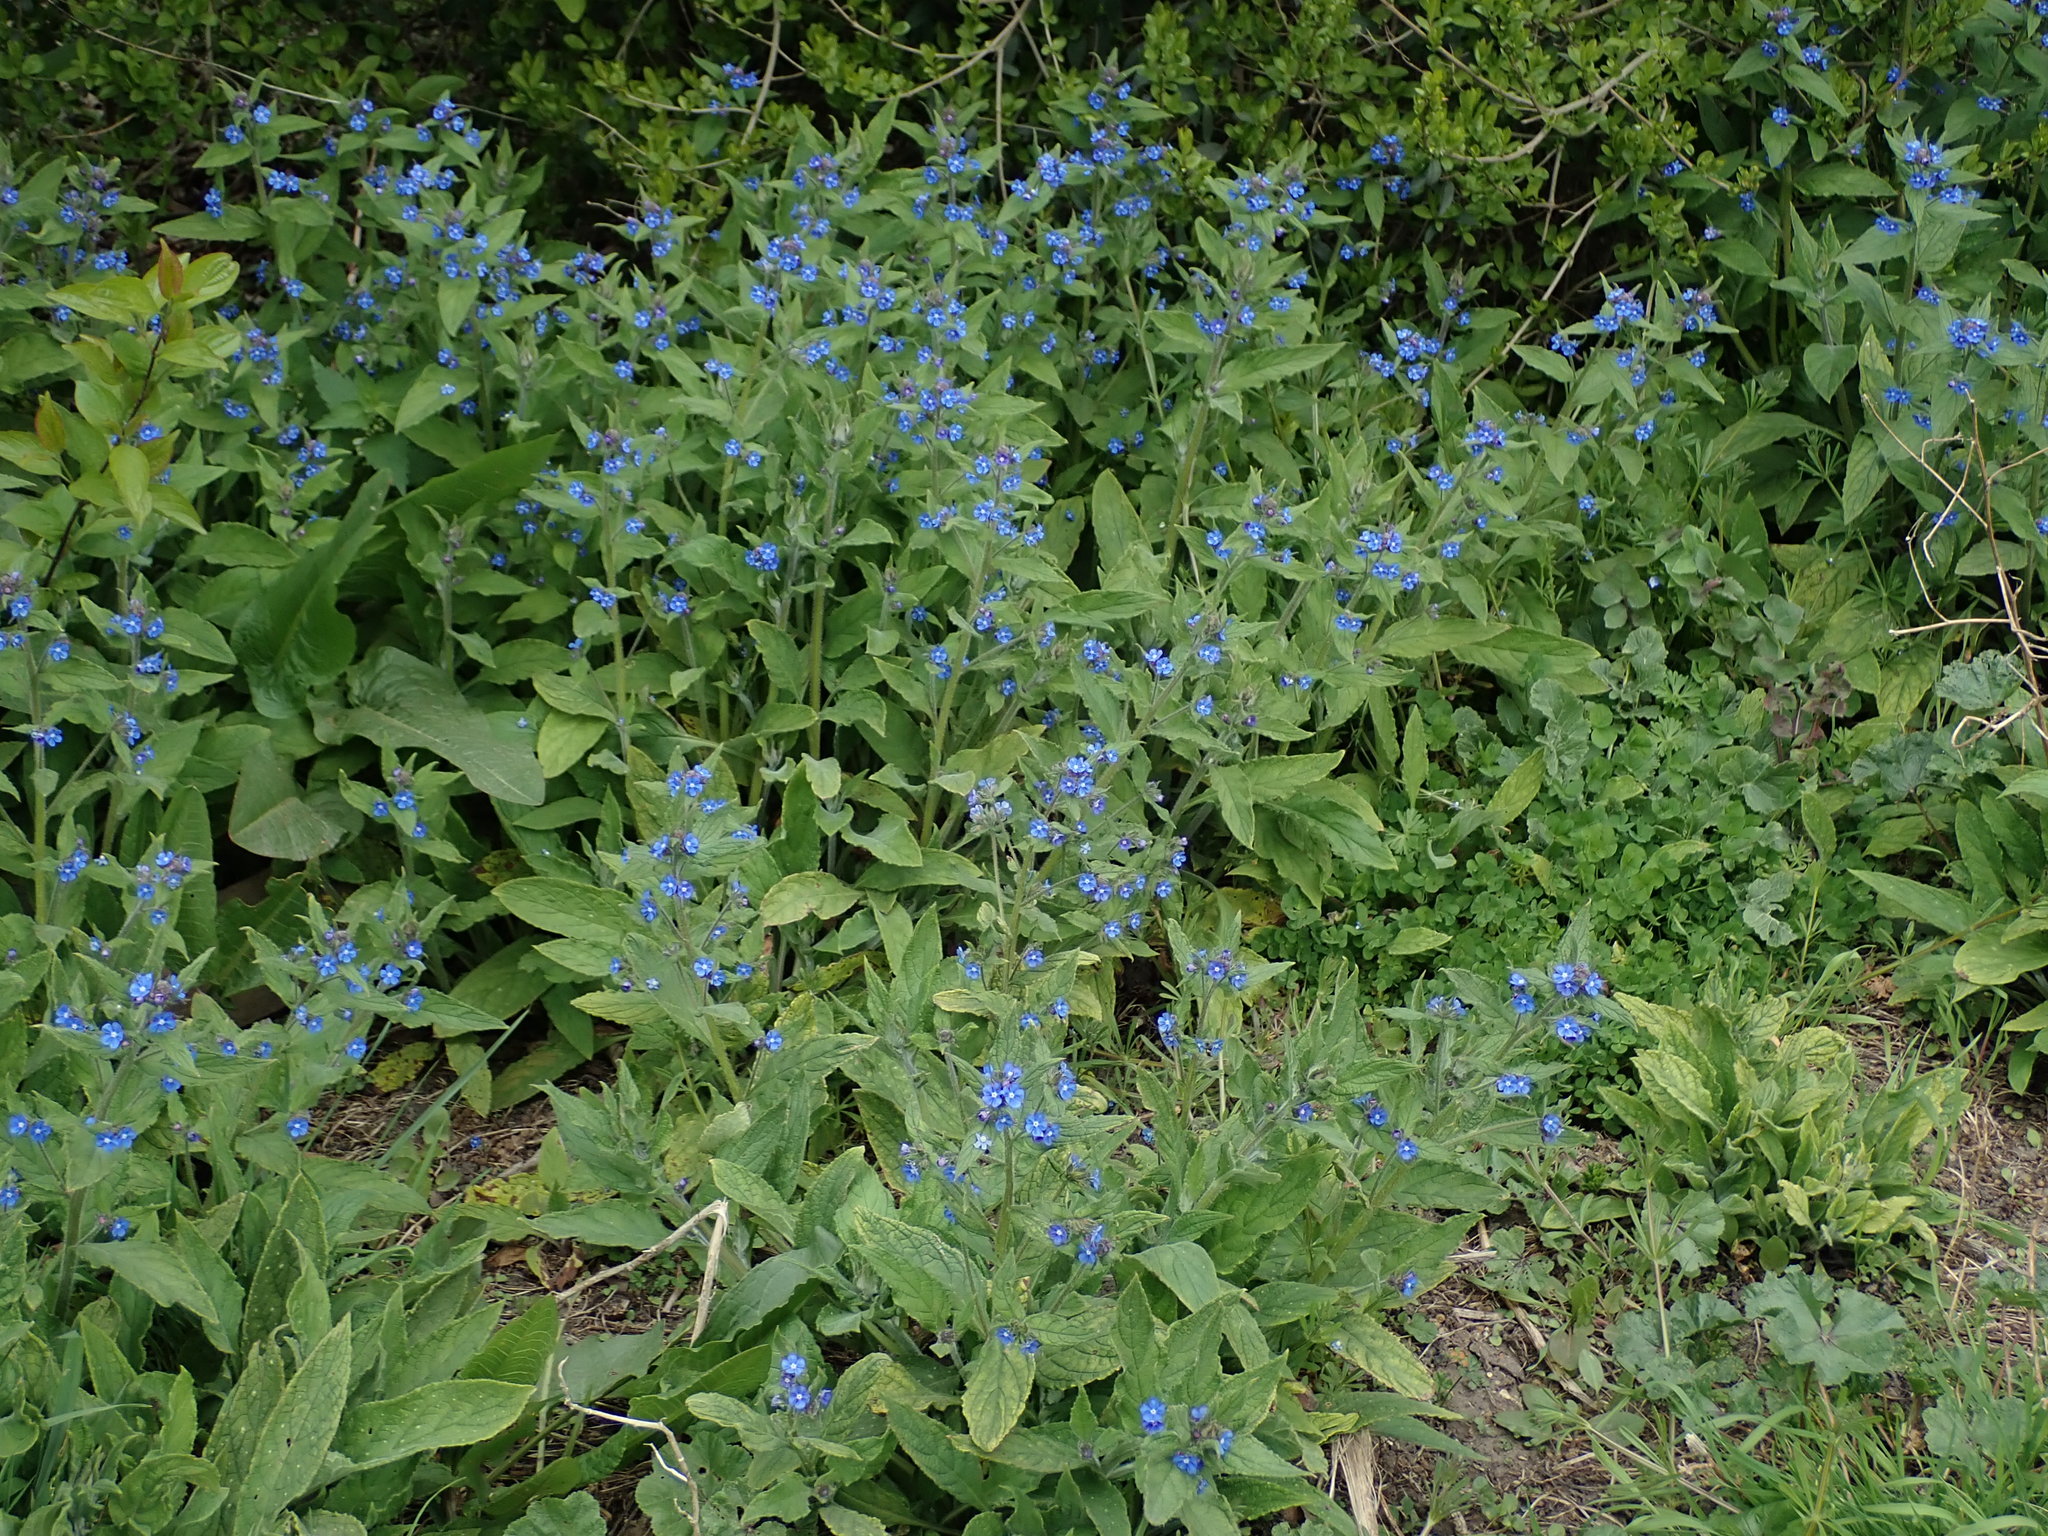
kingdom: Plantae
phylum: Tracheophyta
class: Magnoliopsida
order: Boraginales
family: Boraginaceae
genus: Pentaglottis
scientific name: Pentaglottis sempervirens
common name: Green alkanet
